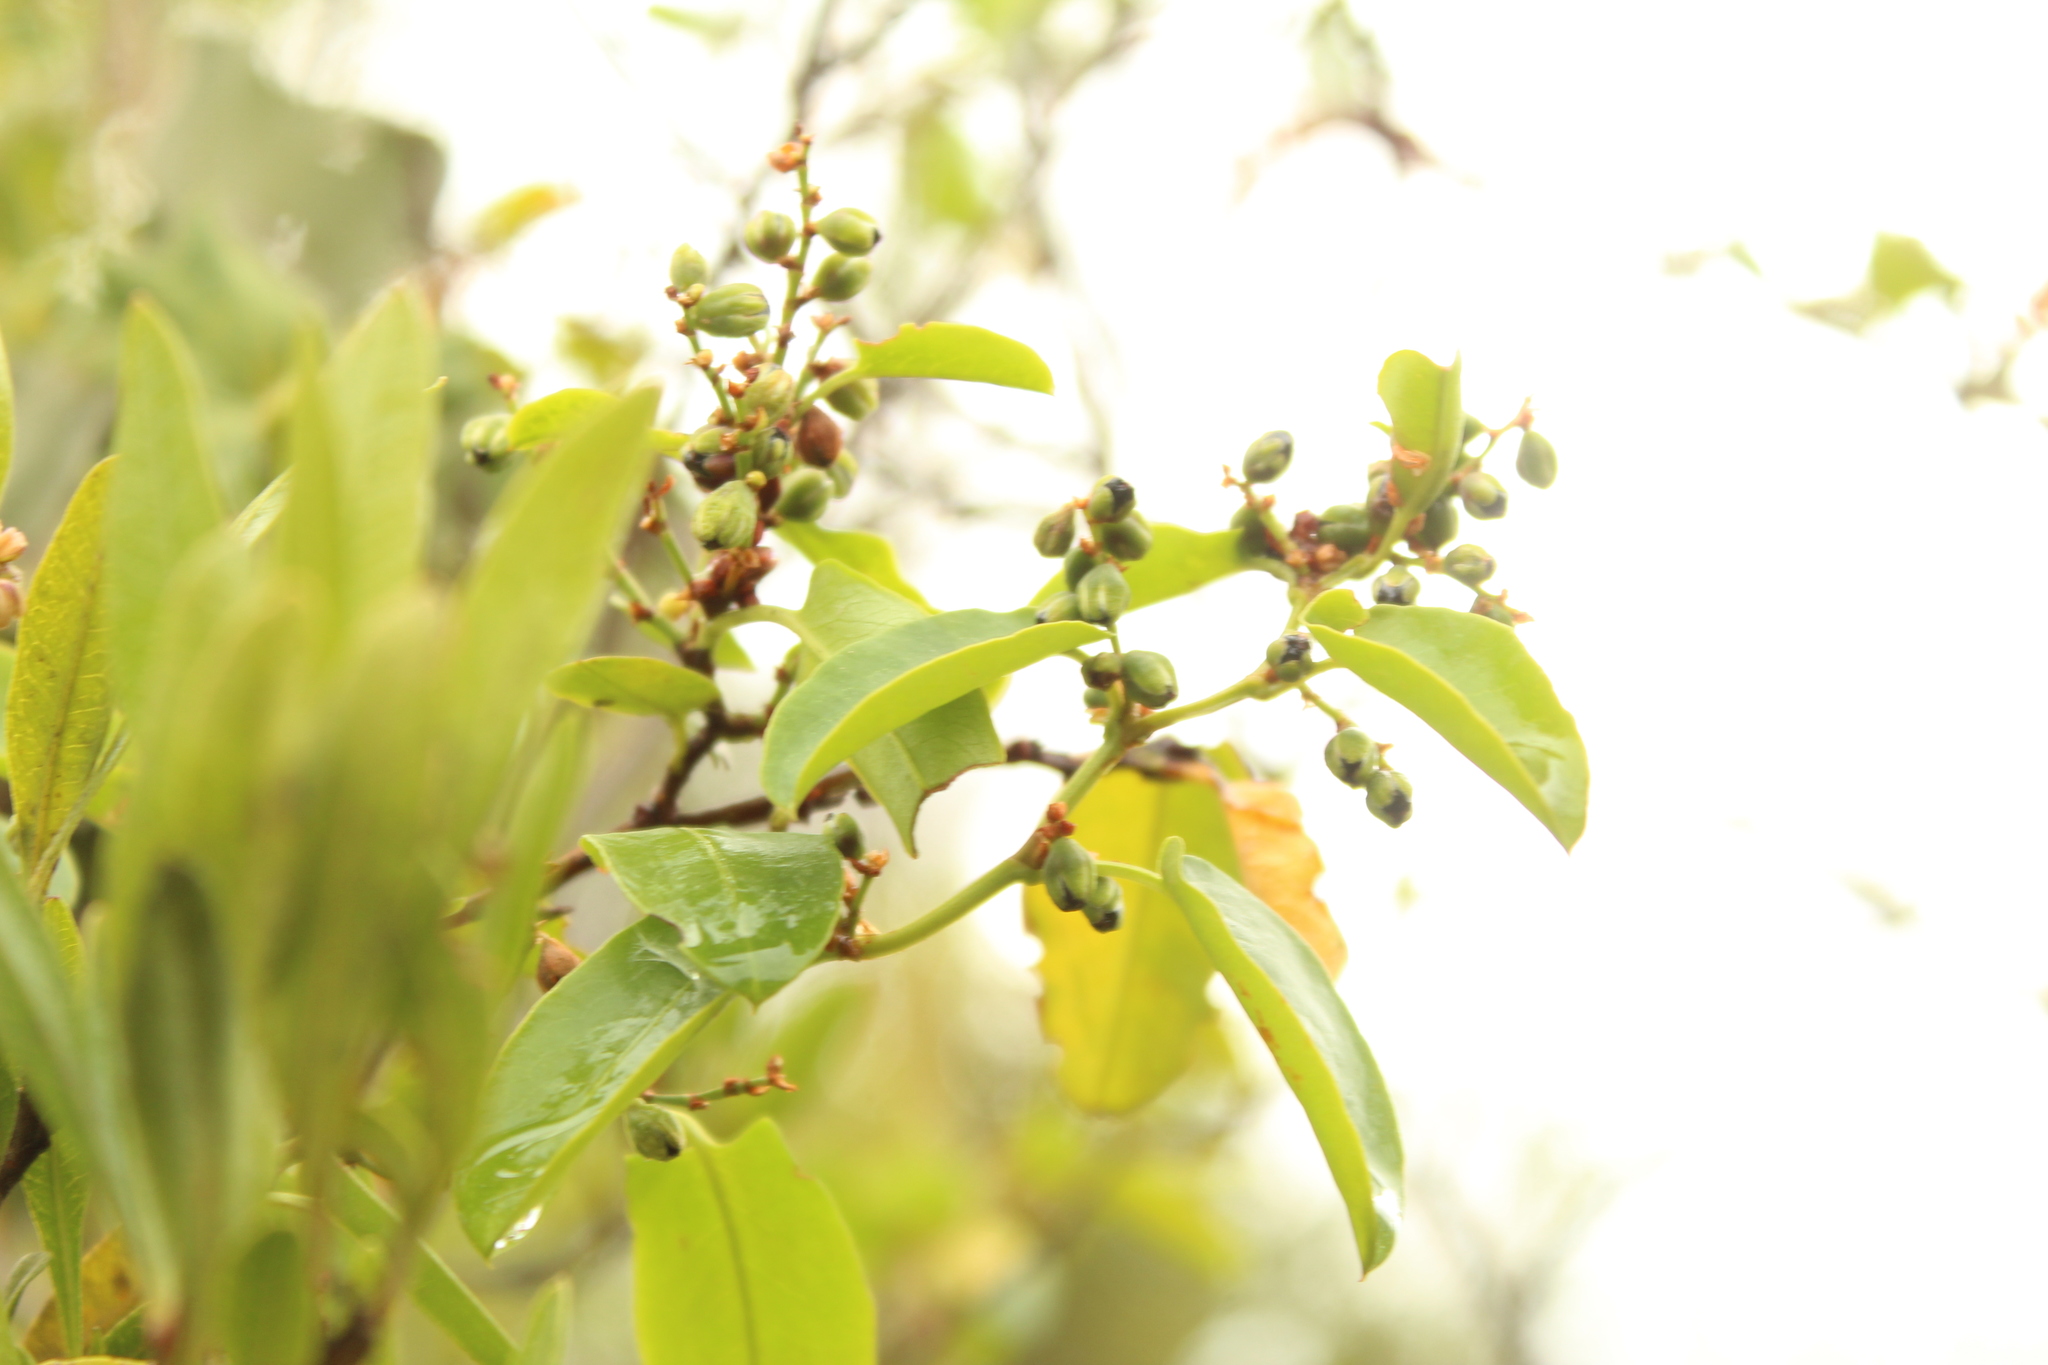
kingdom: Plantae
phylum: Tracheophyta
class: Magnoliopsida
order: Caryophyllales
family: Polygonaceae
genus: Muehlenbeckia
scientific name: Muehlenbeckia tamnifolia
